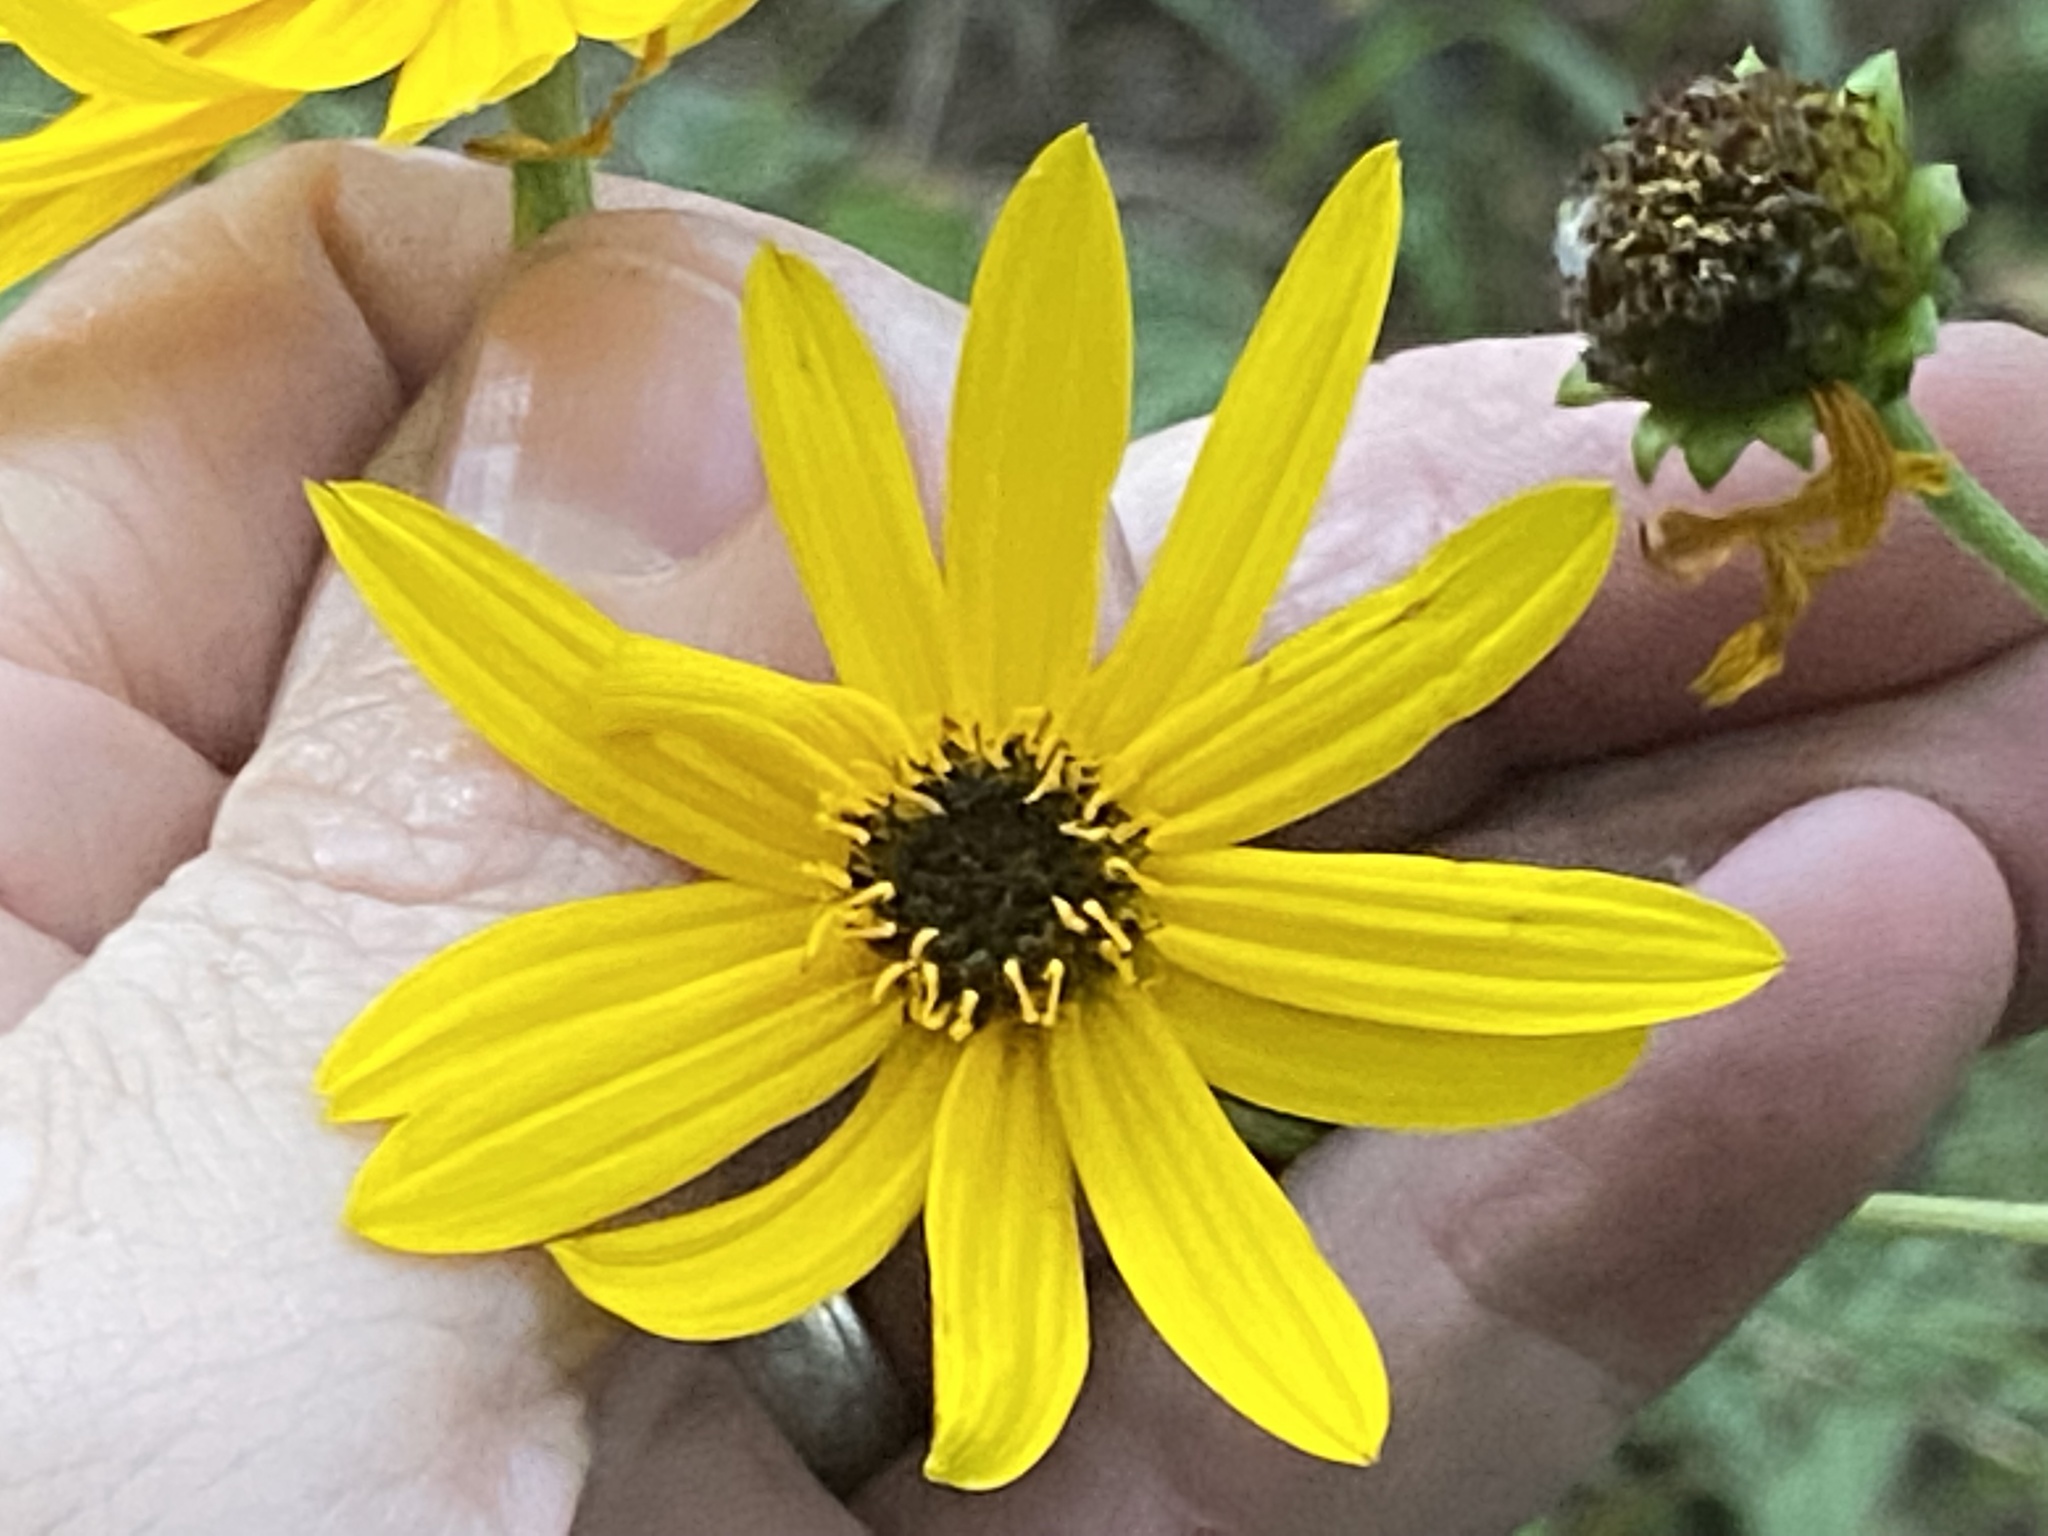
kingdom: Plantae
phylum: Tracheophyta
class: Magnoliopsida
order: Asterales
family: Asteraceae
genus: Helianthus
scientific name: Helianthus atrorubens
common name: Dark-eyed sunflower
